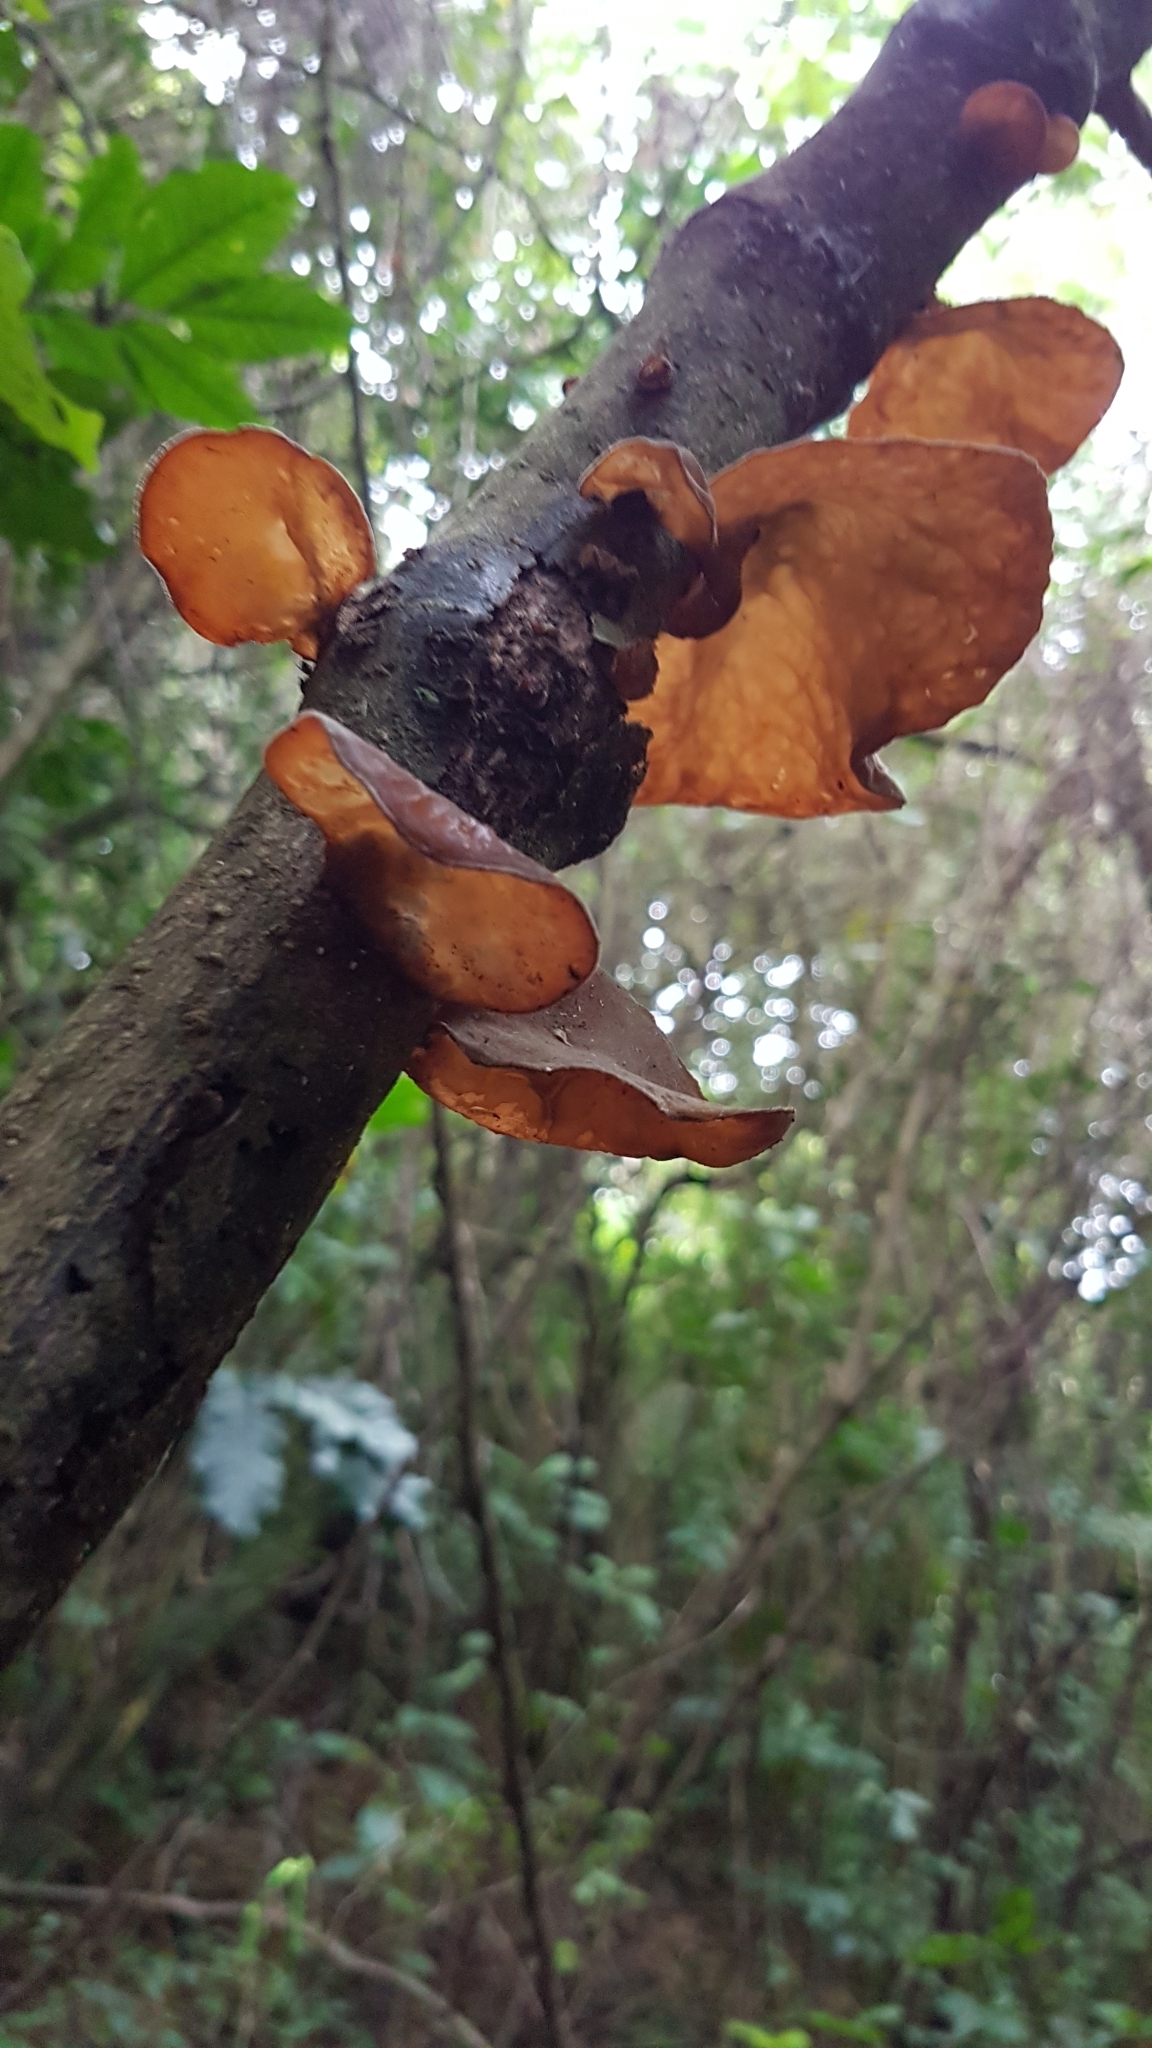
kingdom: Fungi
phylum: Basidiomycota
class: Agaricomycetes
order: Auriculariales
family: Auriculariaceae
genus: Auricularia
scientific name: Auricularia cornea
